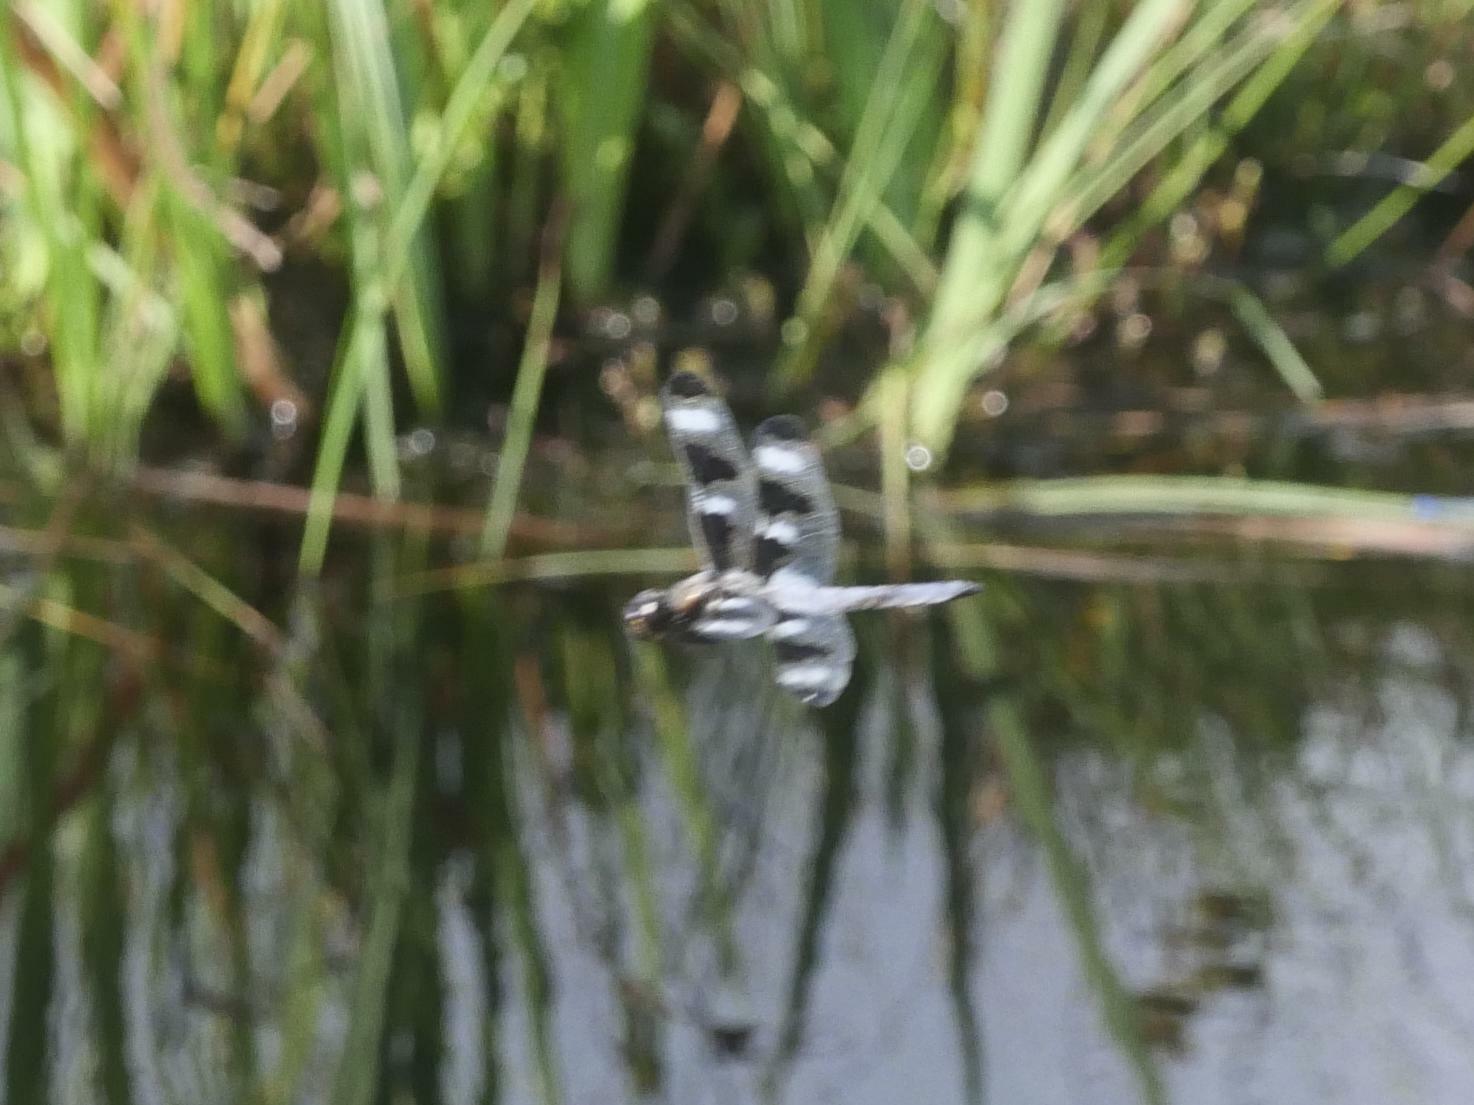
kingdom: Animalia
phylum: Arthropoda
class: Insecta
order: Odonata
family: Libellulidae
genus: Libellula
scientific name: Libellula pulchella
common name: Twelve-spotted skimmer
